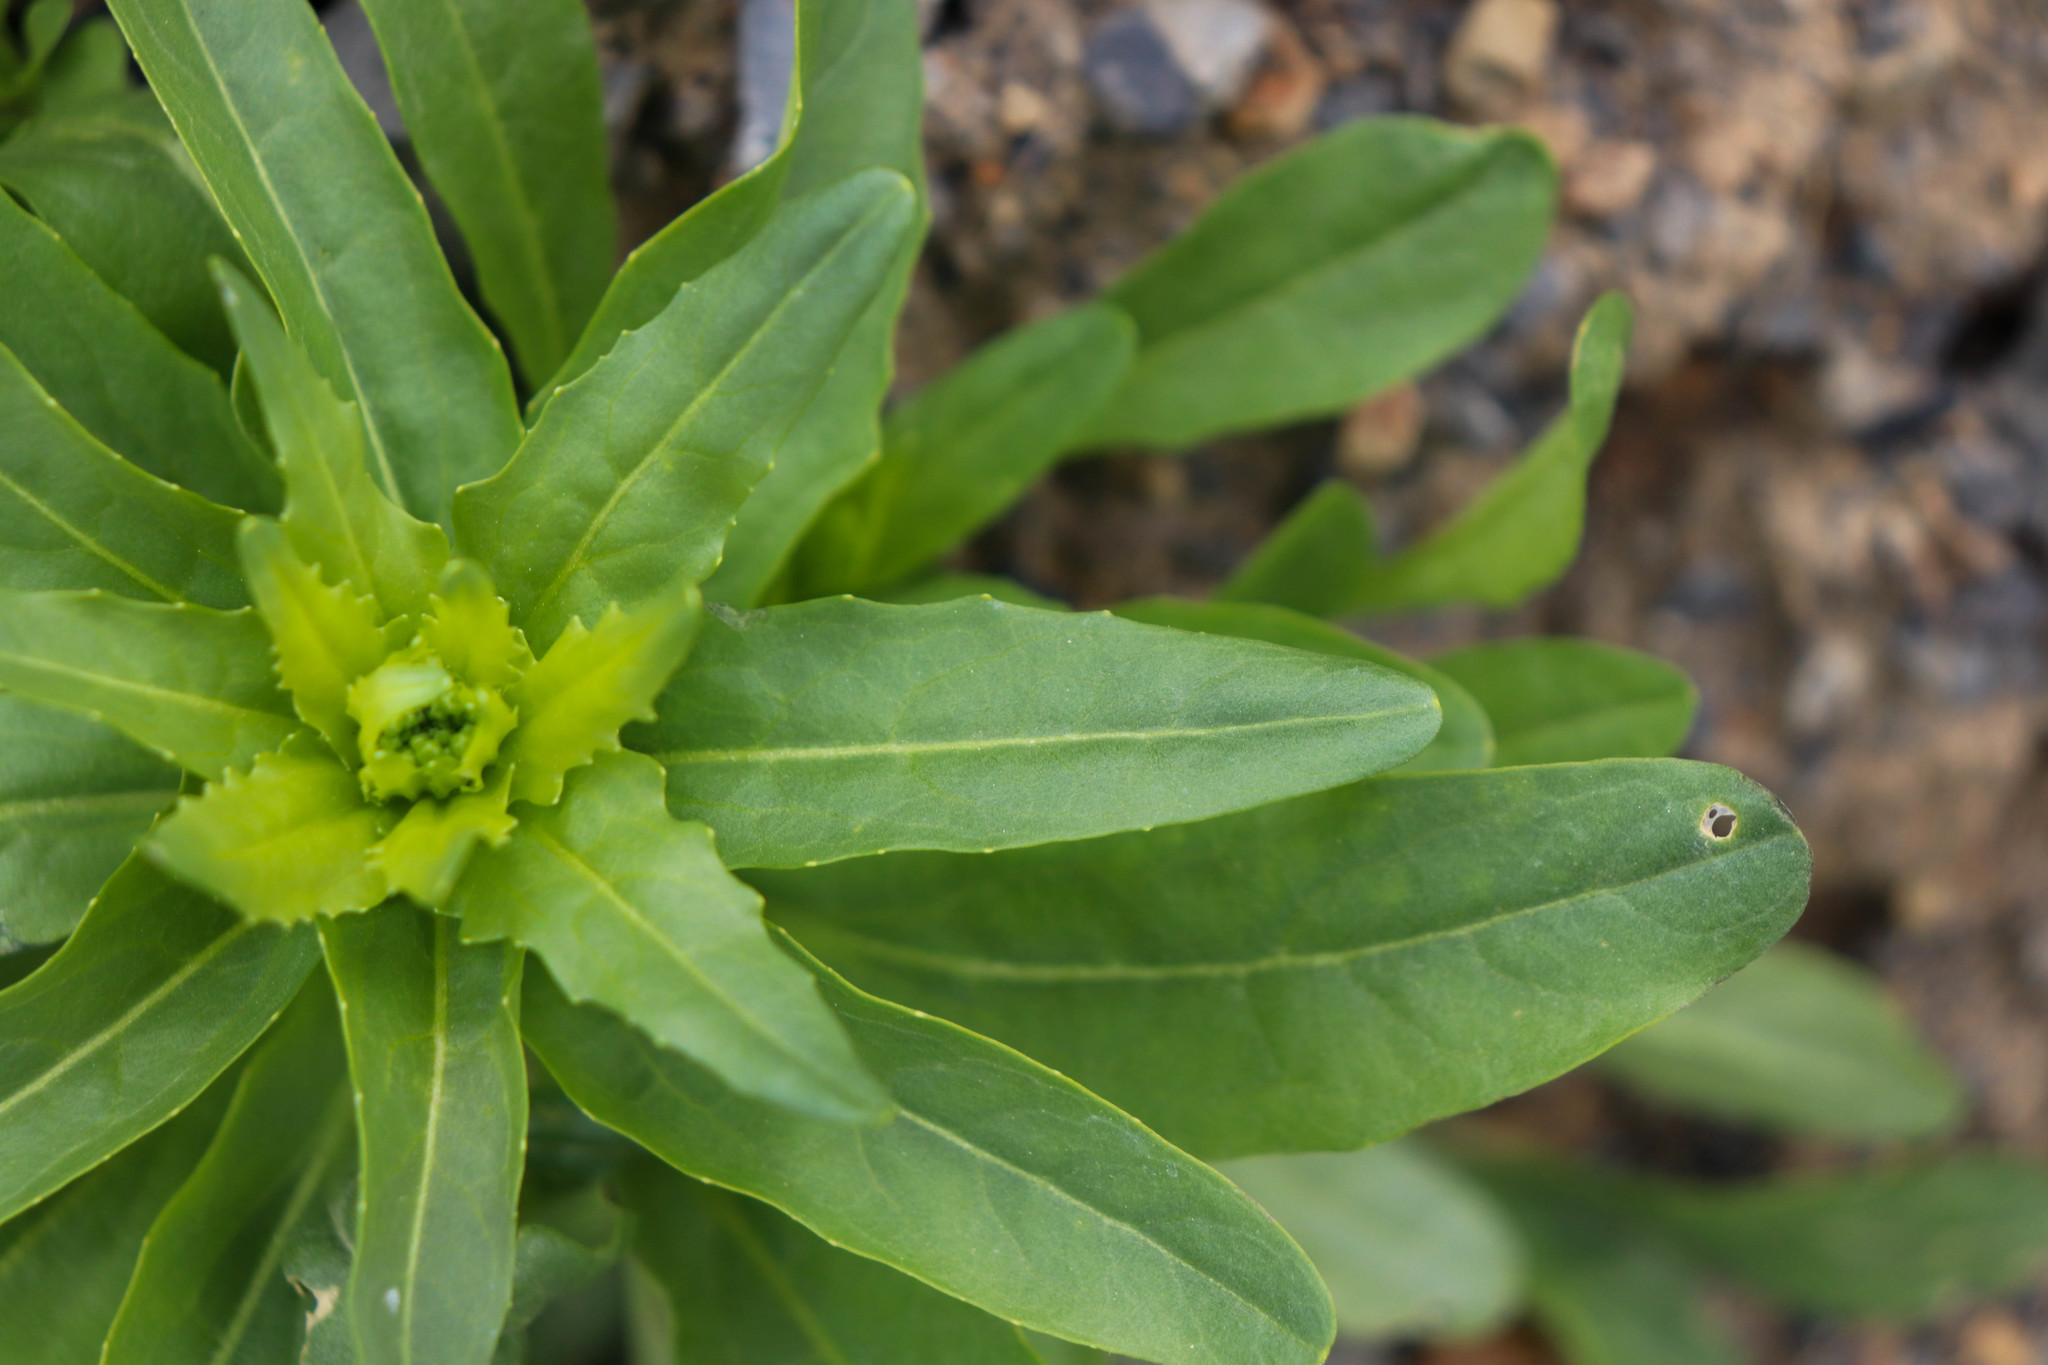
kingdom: Plantae
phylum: Tracheophyta
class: Magnoliopsida
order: Brassicales
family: Brassicaceae
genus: Thlaspi
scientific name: Thlaspi arvense
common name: Field pennycress
